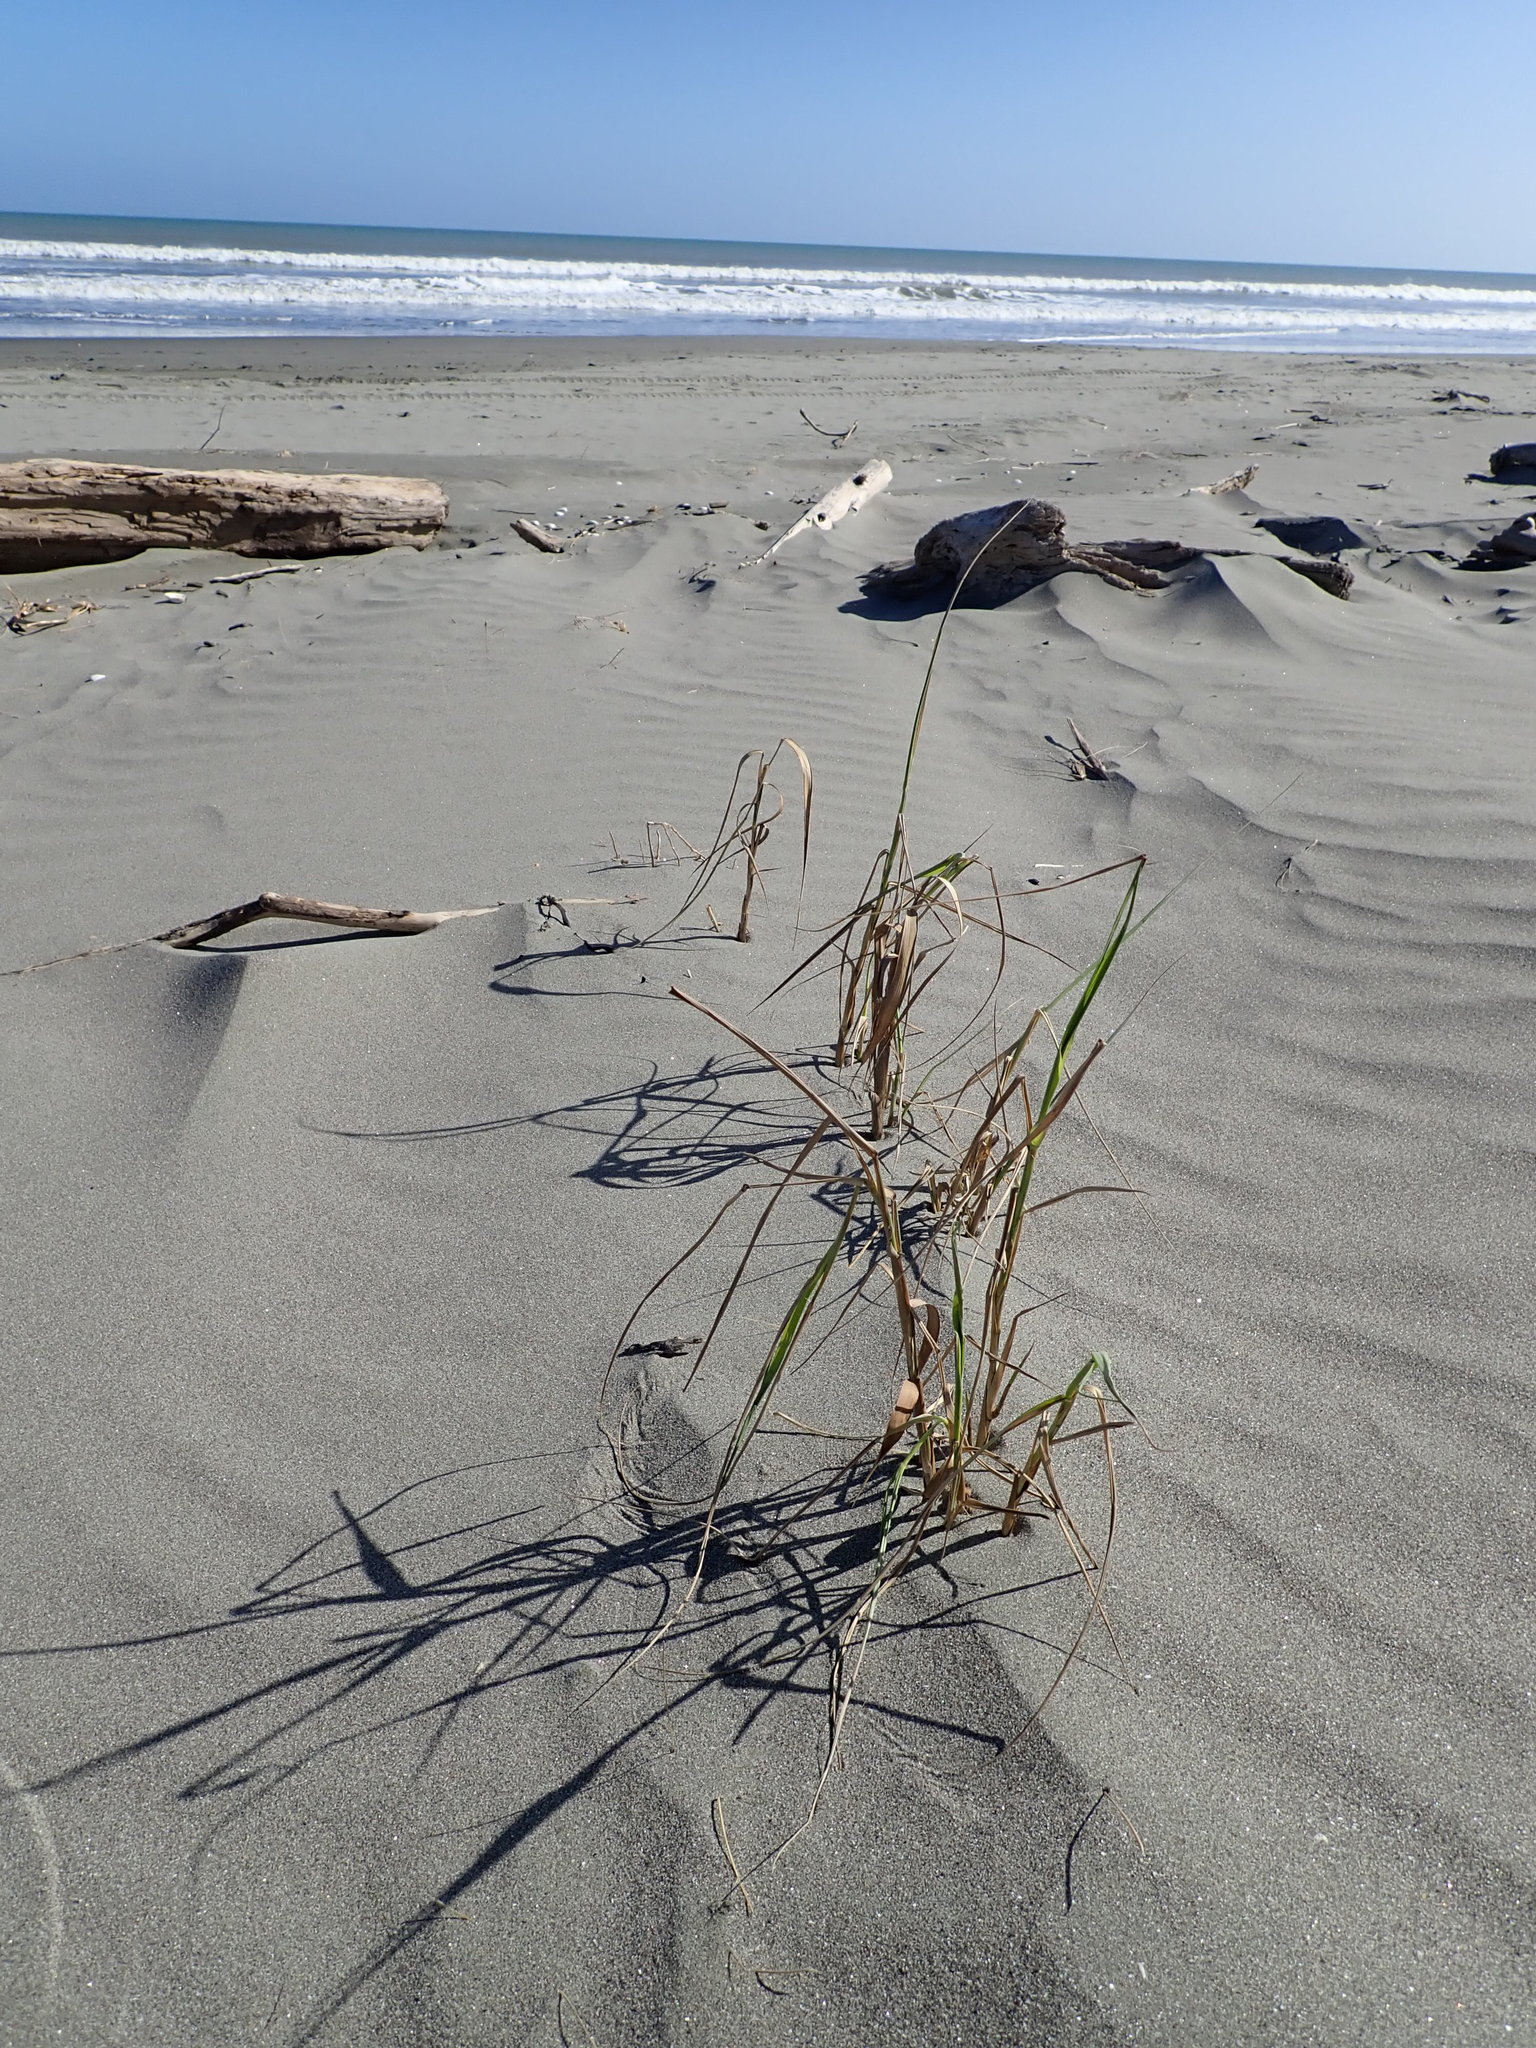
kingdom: Plantae
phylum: Tracheophyta
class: Liliopsida
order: Poales
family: Poaceae
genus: Phragmites
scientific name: Phragmites karka
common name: Tropical reed
